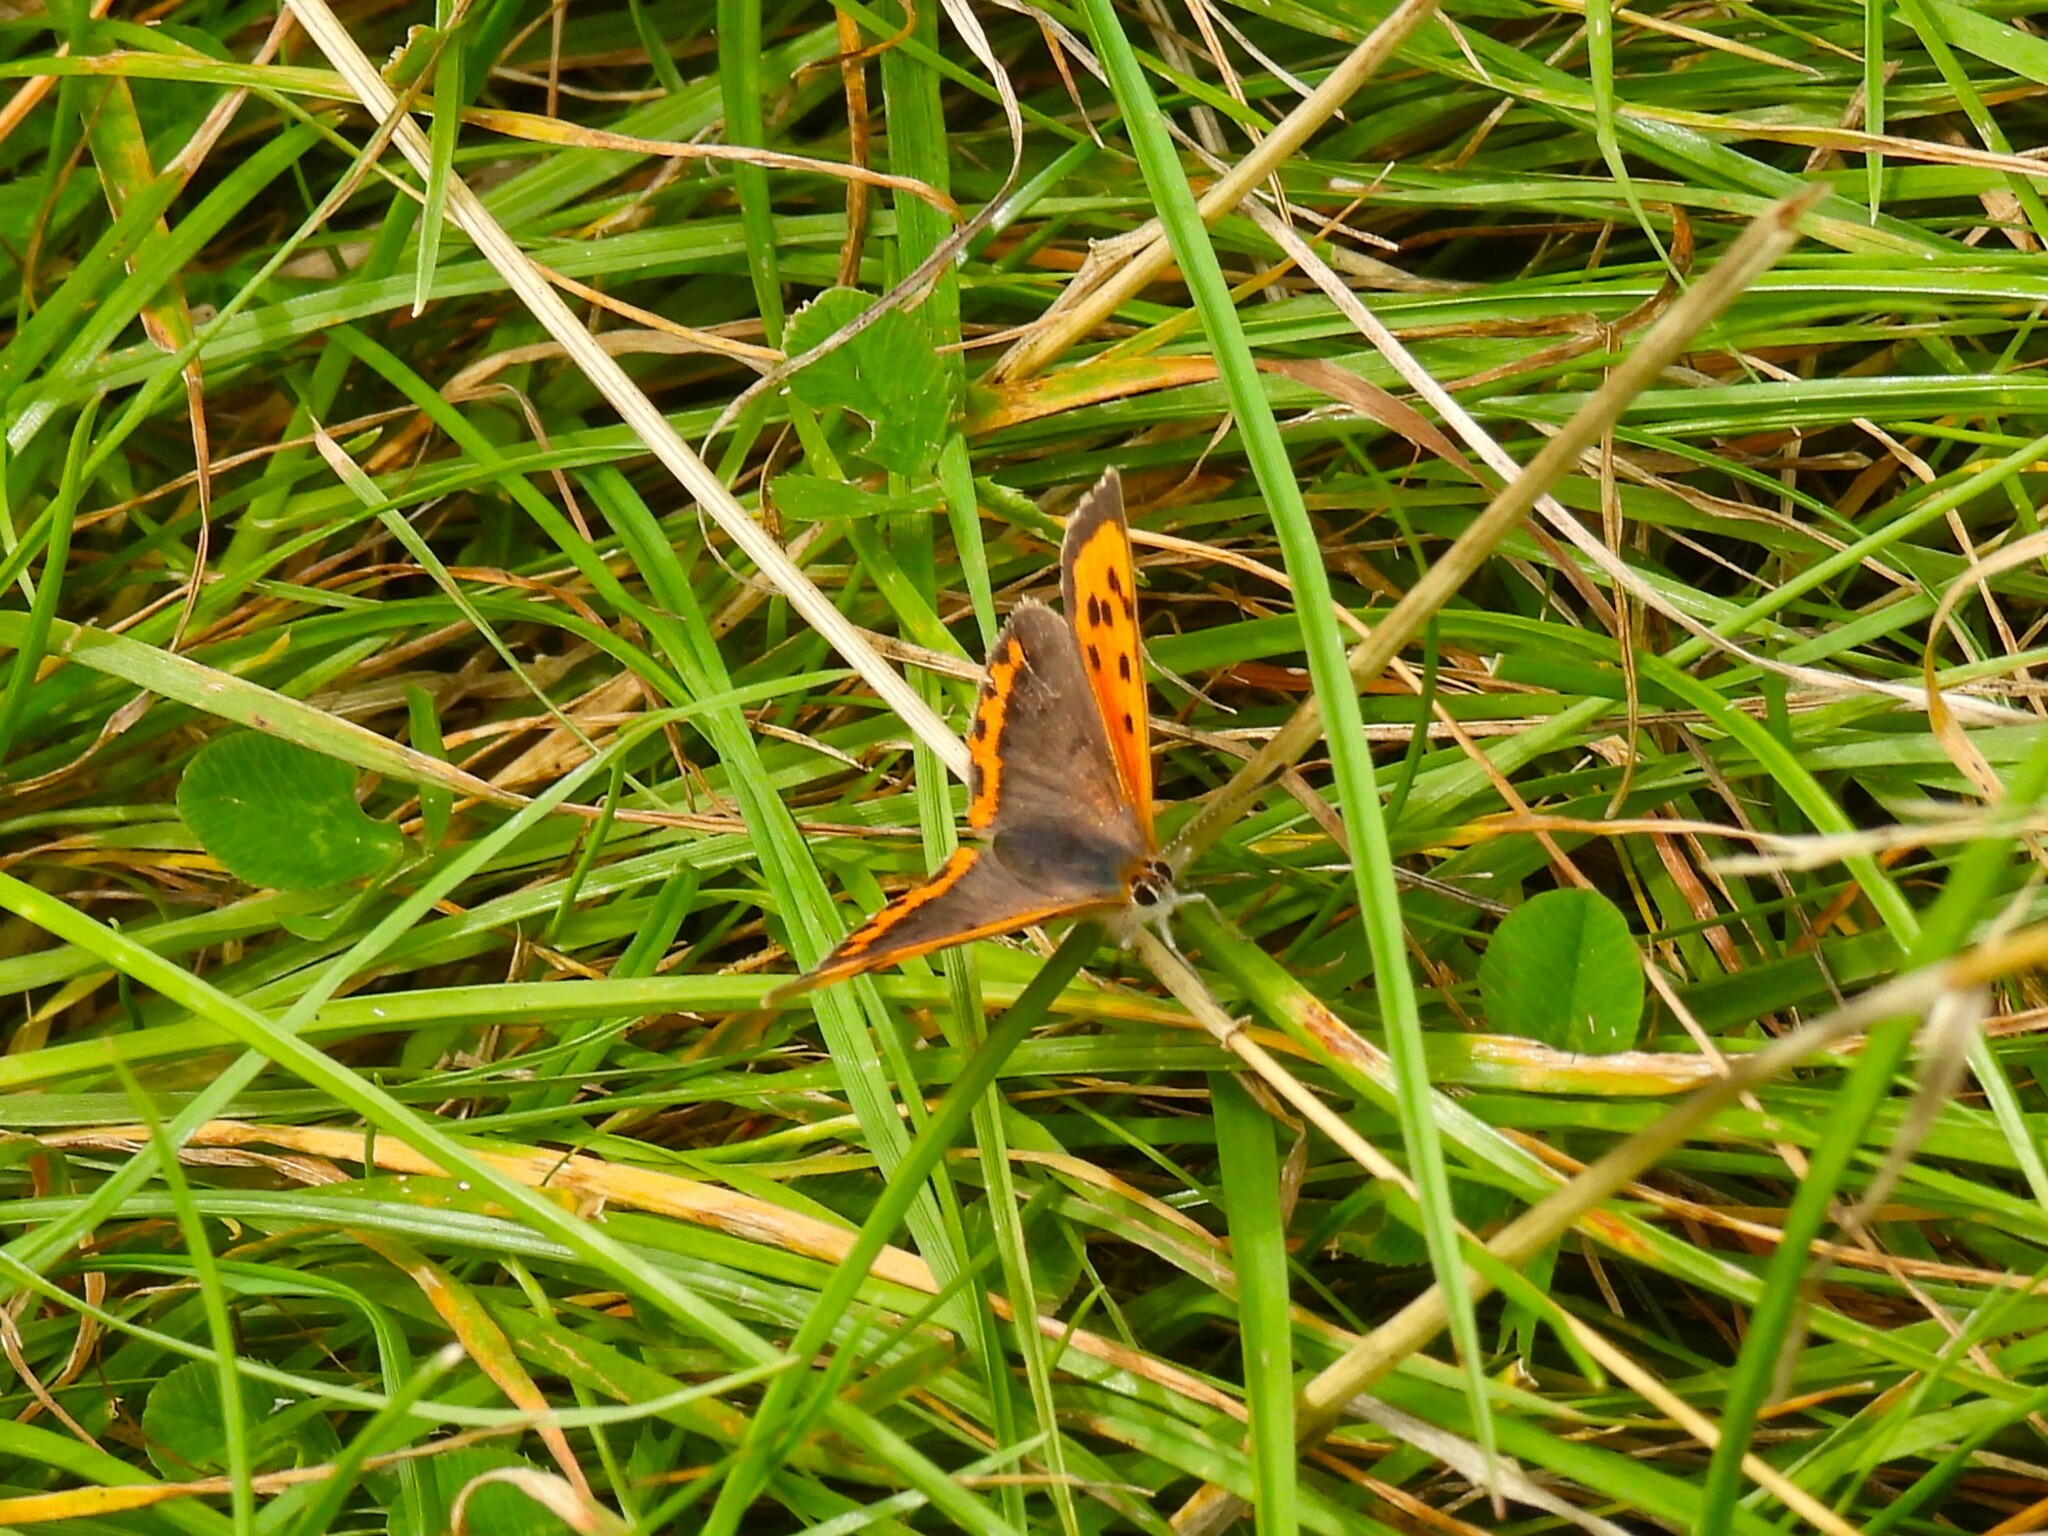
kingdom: Animalia
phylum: Arthropoda
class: Insecta
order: Lepidoptera
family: Lycaenidae
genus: Lycaena
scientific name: Lycaena phlaeas
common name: Small copper
